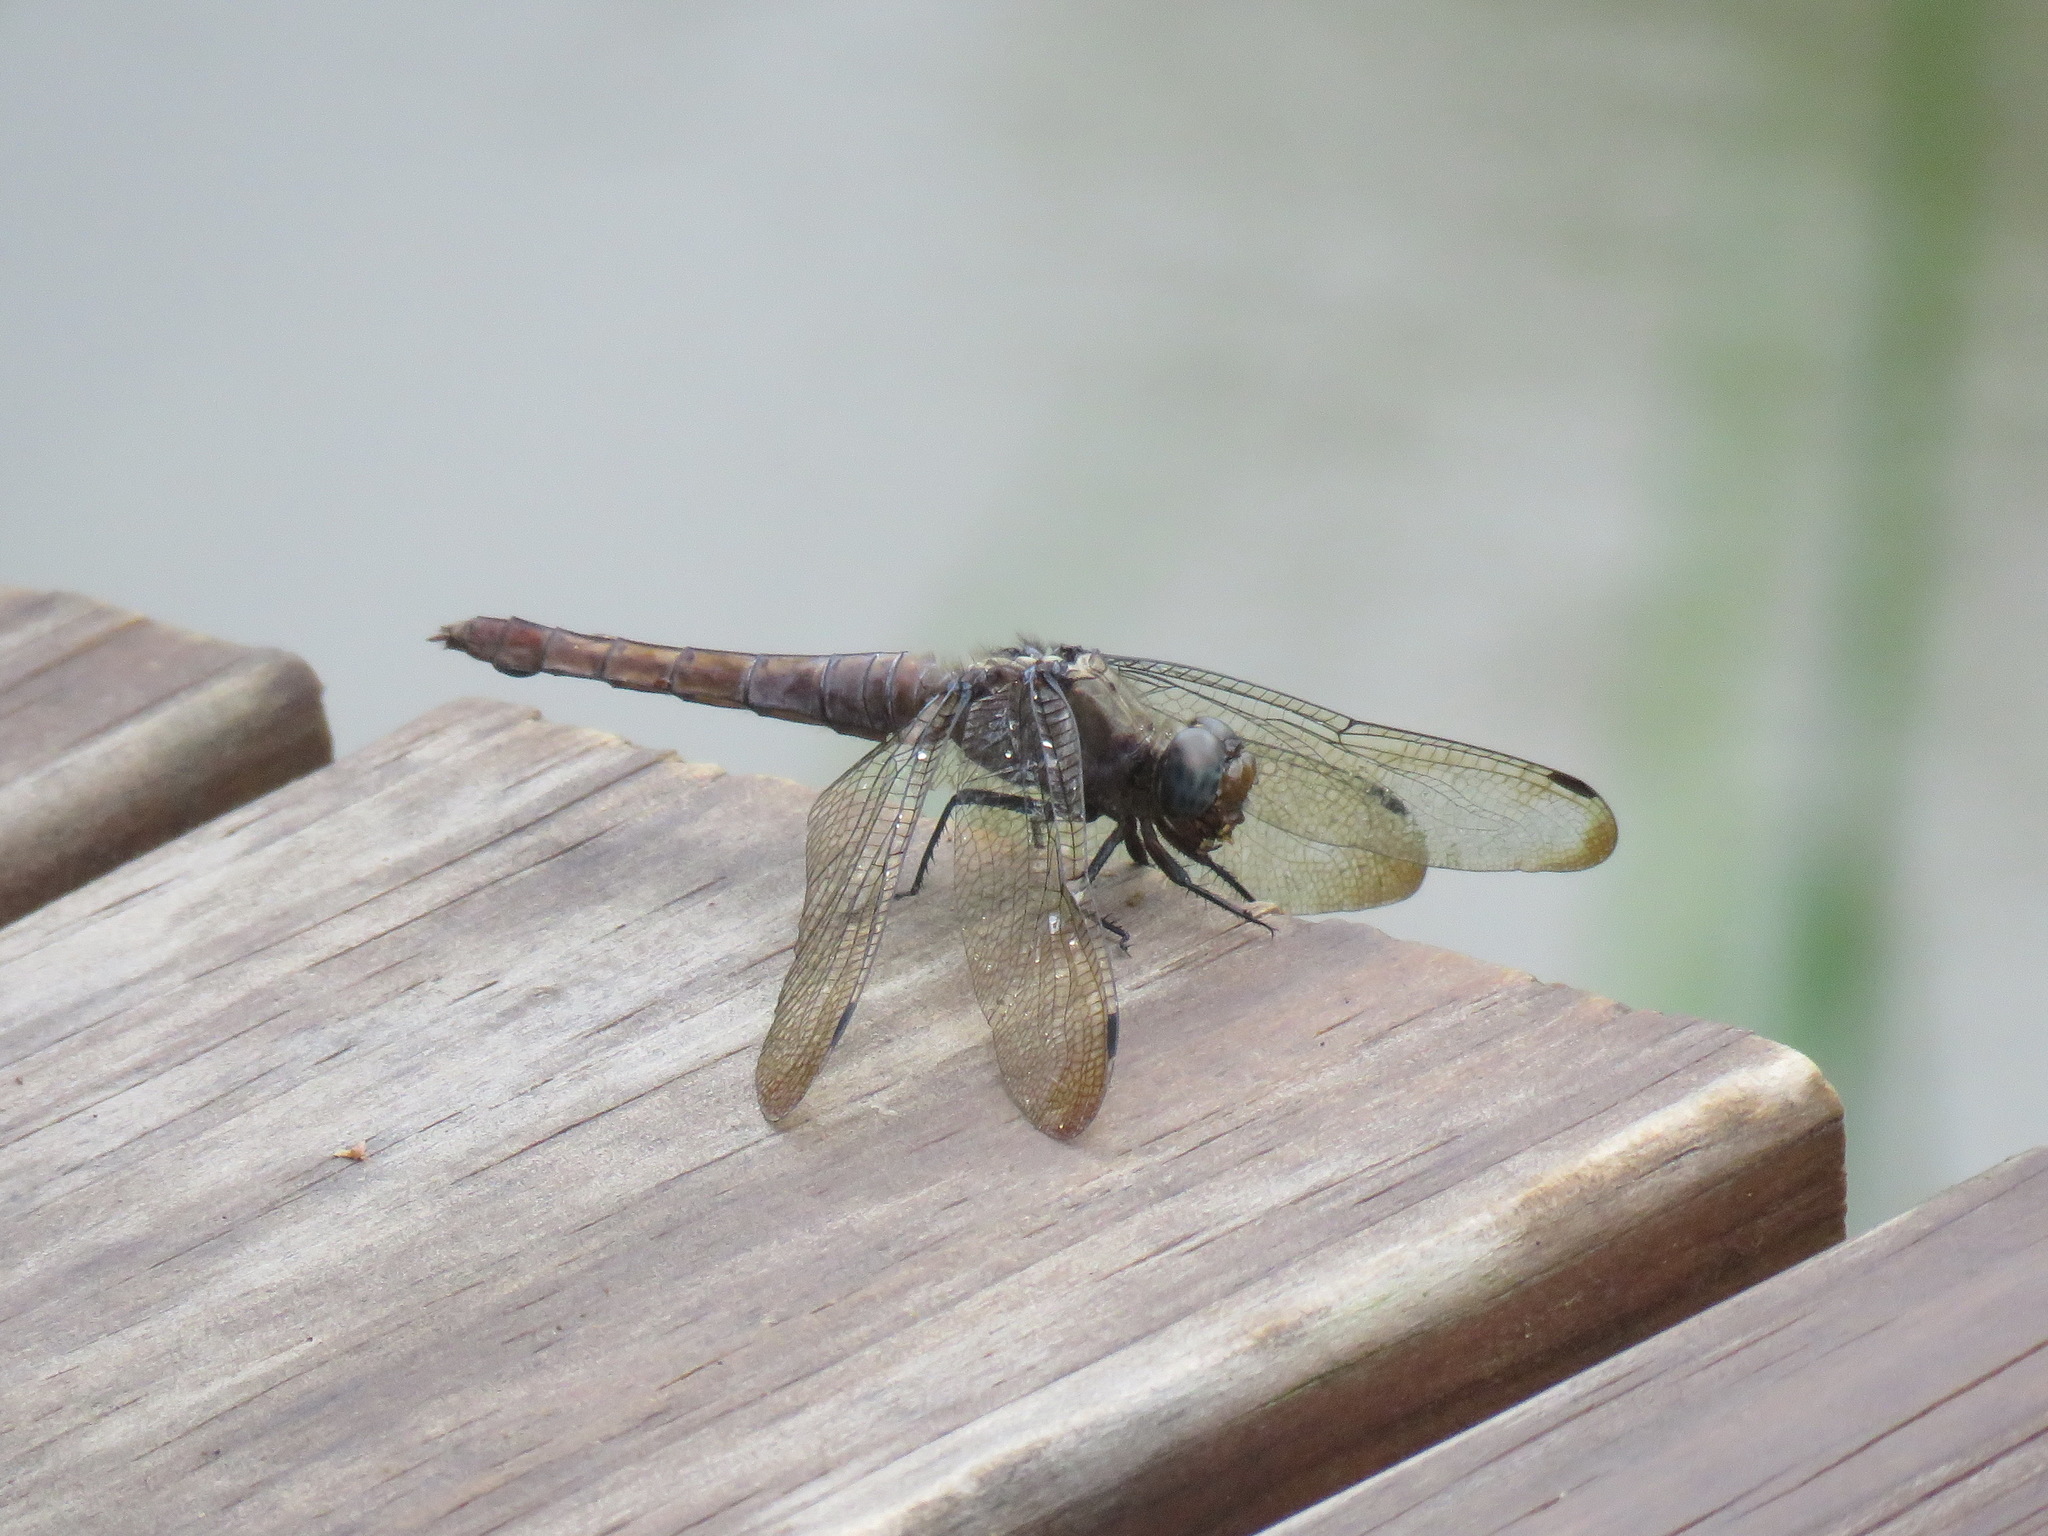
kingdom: Animalia
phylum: Arthropoda
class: Insecta
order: Odonata
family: Libellulidae
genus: Orthetrum
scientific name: Orthetrum pruinosum
